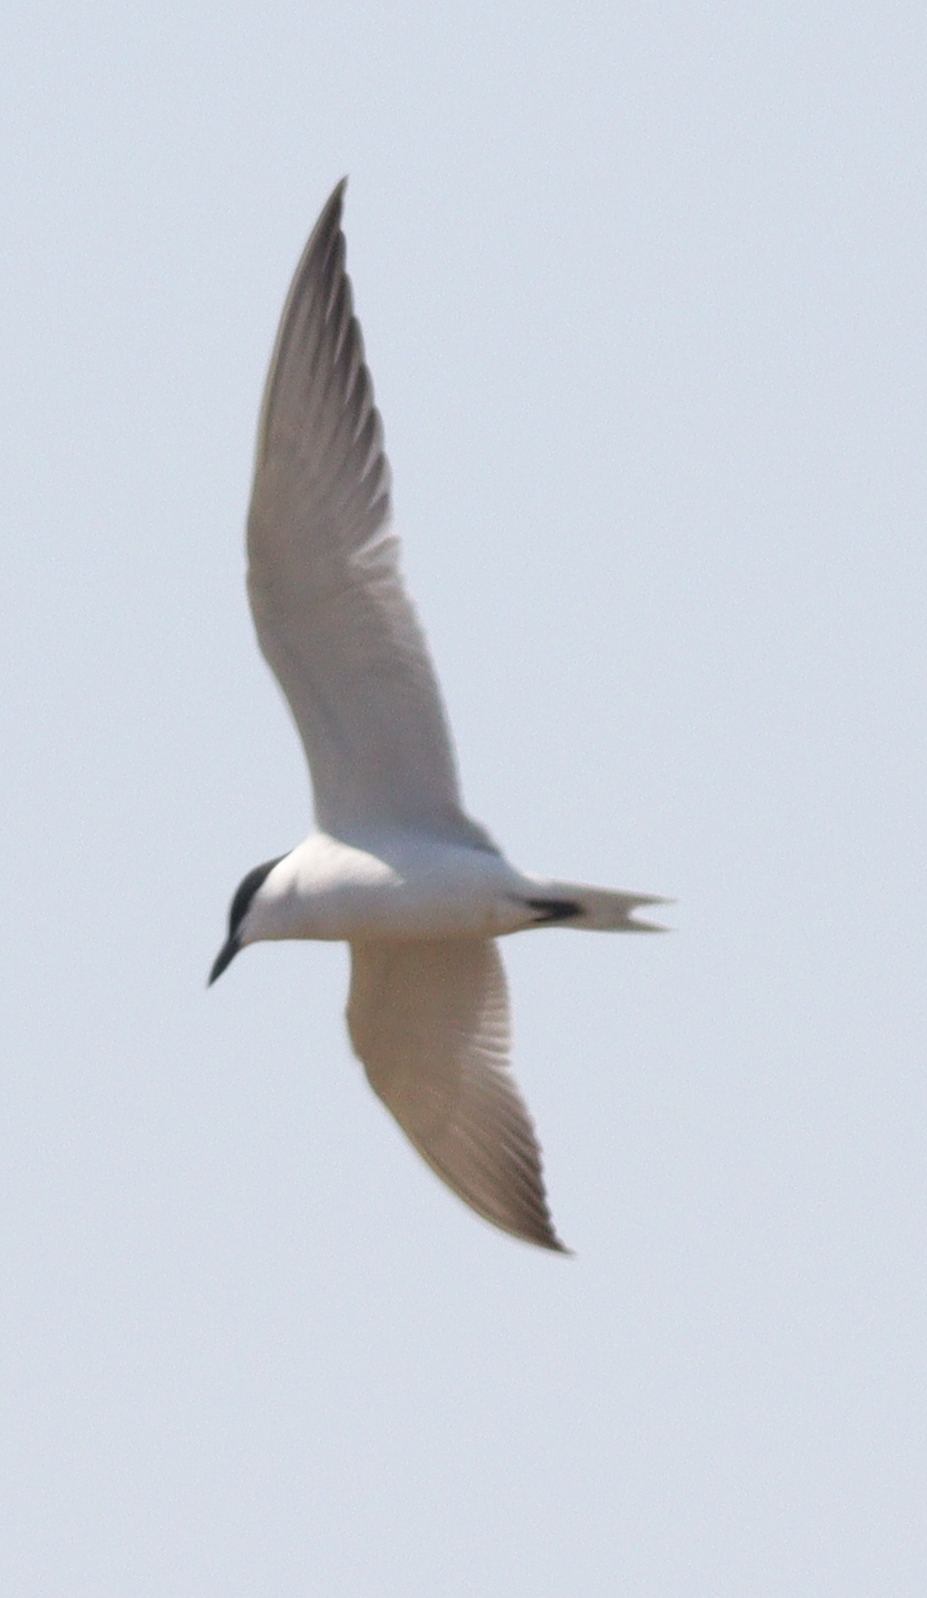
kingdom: Animalia
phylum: Chordata
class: Aves
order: Charadriiformes
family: Laridae
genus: Gelochelidon
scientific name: Gelochelidon nilotica
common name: Gull-billed tern
